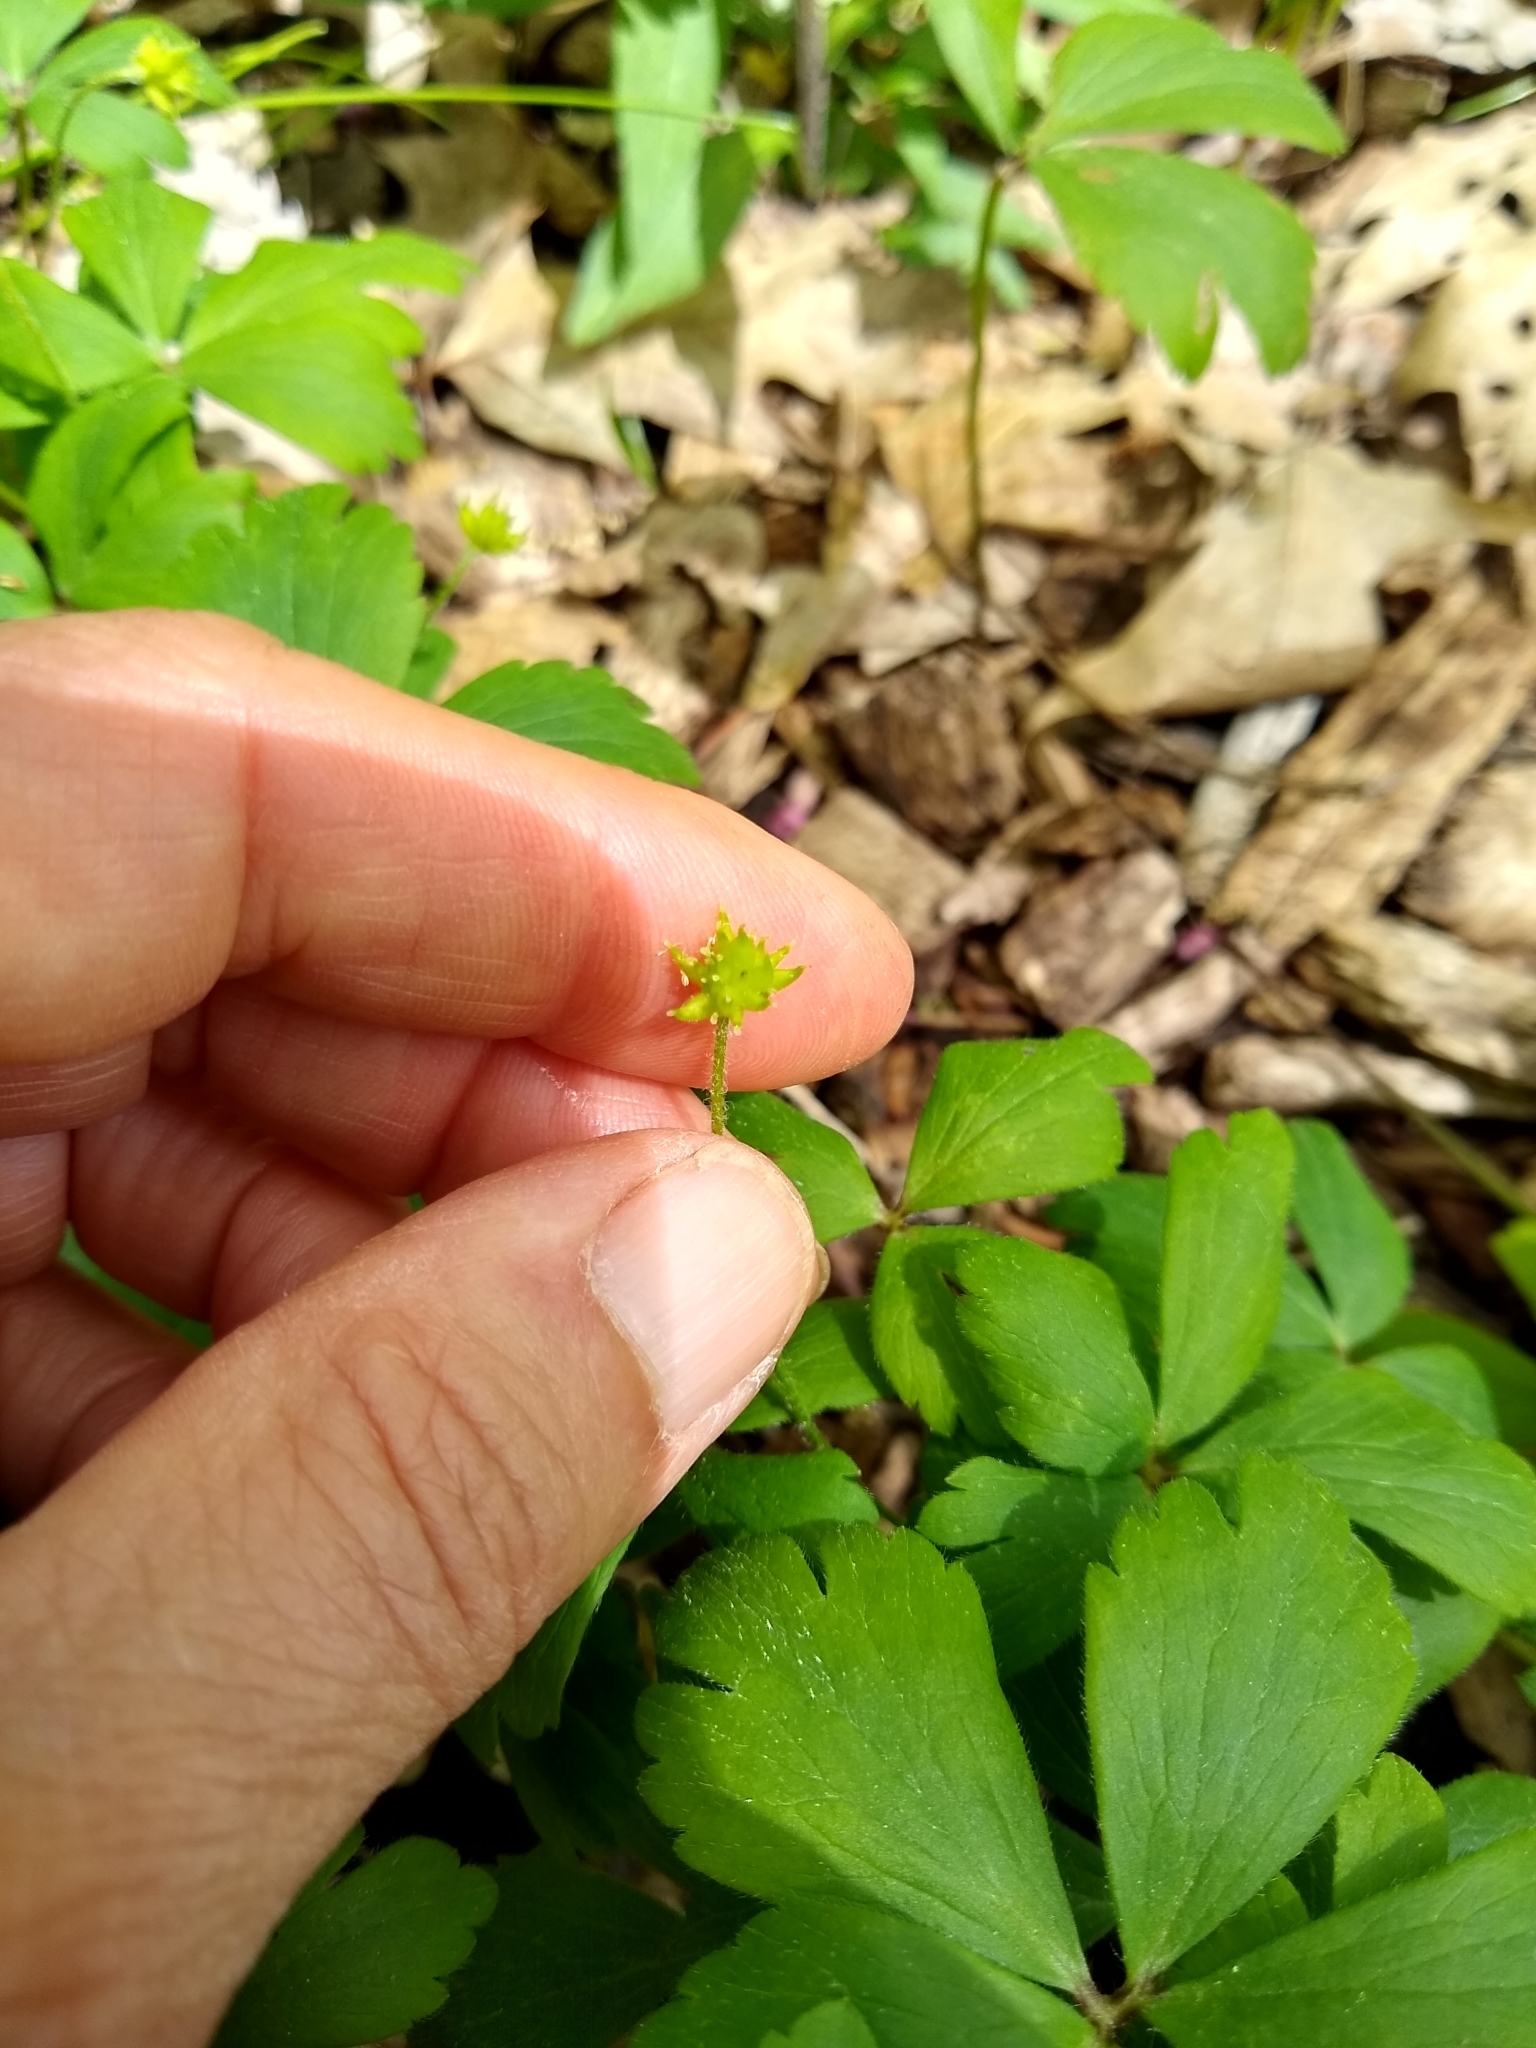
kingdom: Plantae
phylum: Tracheophyta
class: Magnoliopsida
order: Ranunculales
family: Ranunculaceae
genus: Anemone
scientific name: Anemone quinquefolia
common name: Wood anemone
